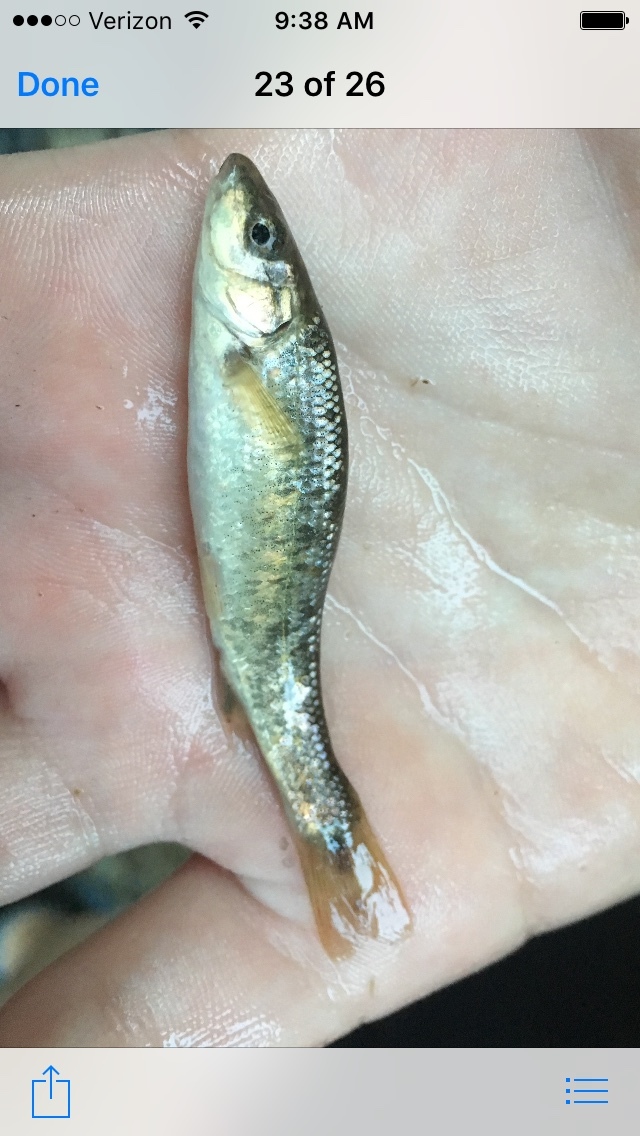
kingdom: Animalia
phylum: Chordata
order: Cypriniformes
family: Cyprinidae
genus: Campostoma
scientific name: Campostoma anomalum
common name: Central stoneroller
